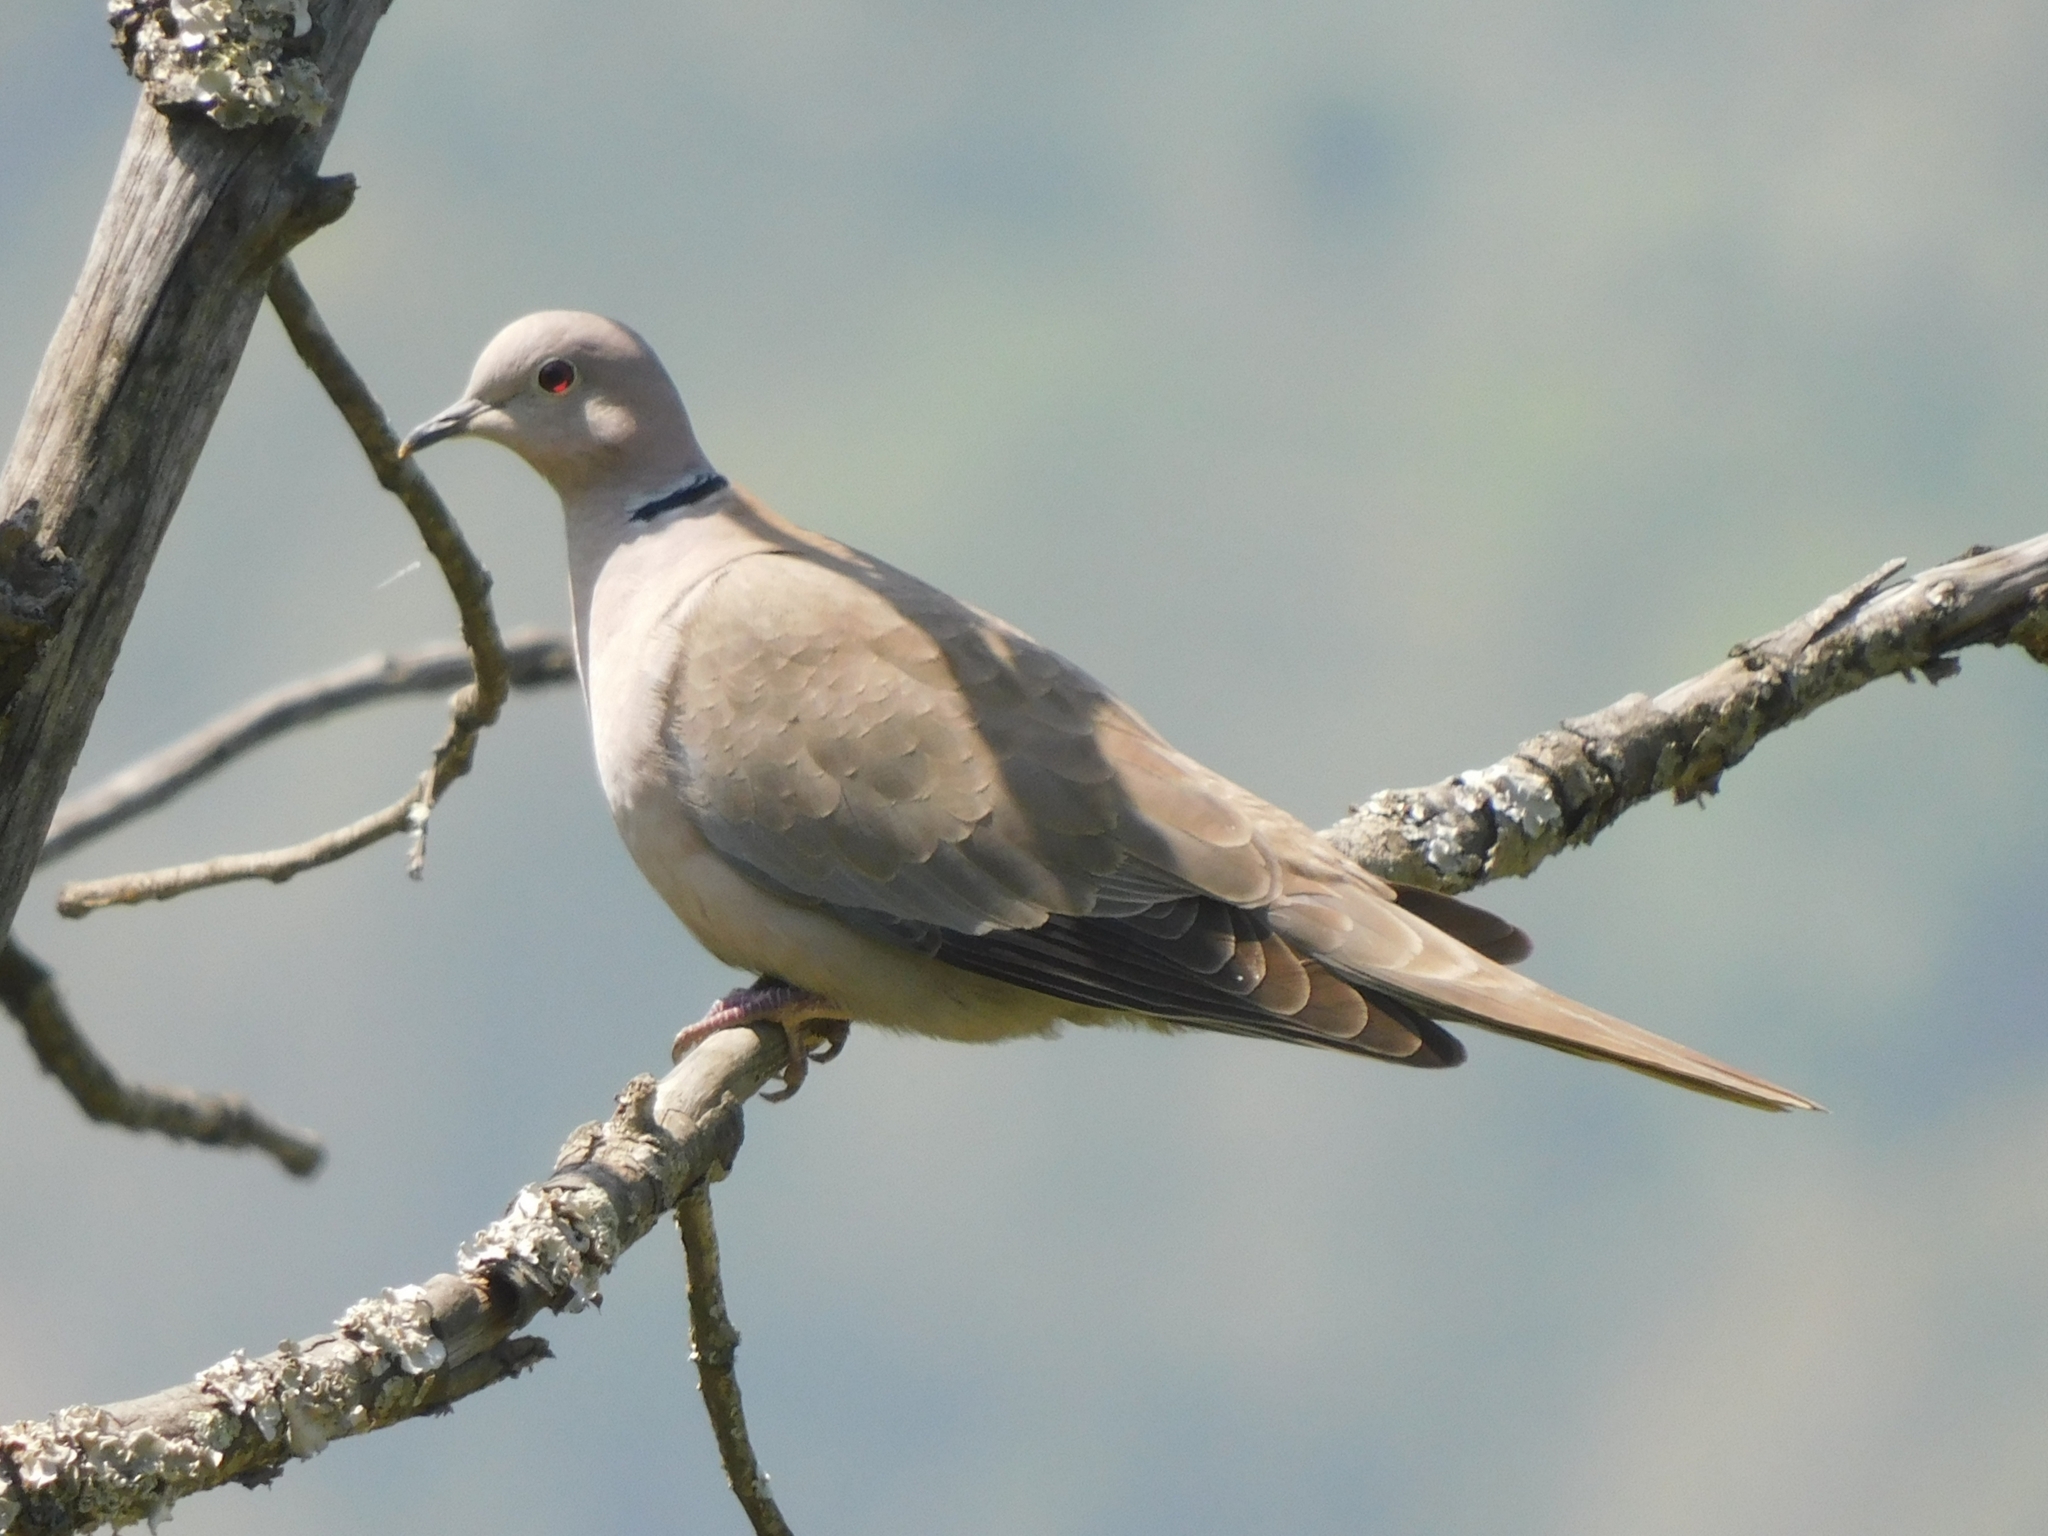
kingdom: Animalia
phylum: Chordata
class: Aves
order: Columbiformes
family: Columbidae
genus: Streptopelia
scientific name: Streptopelia decaocto
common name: Eurasian collared dove
